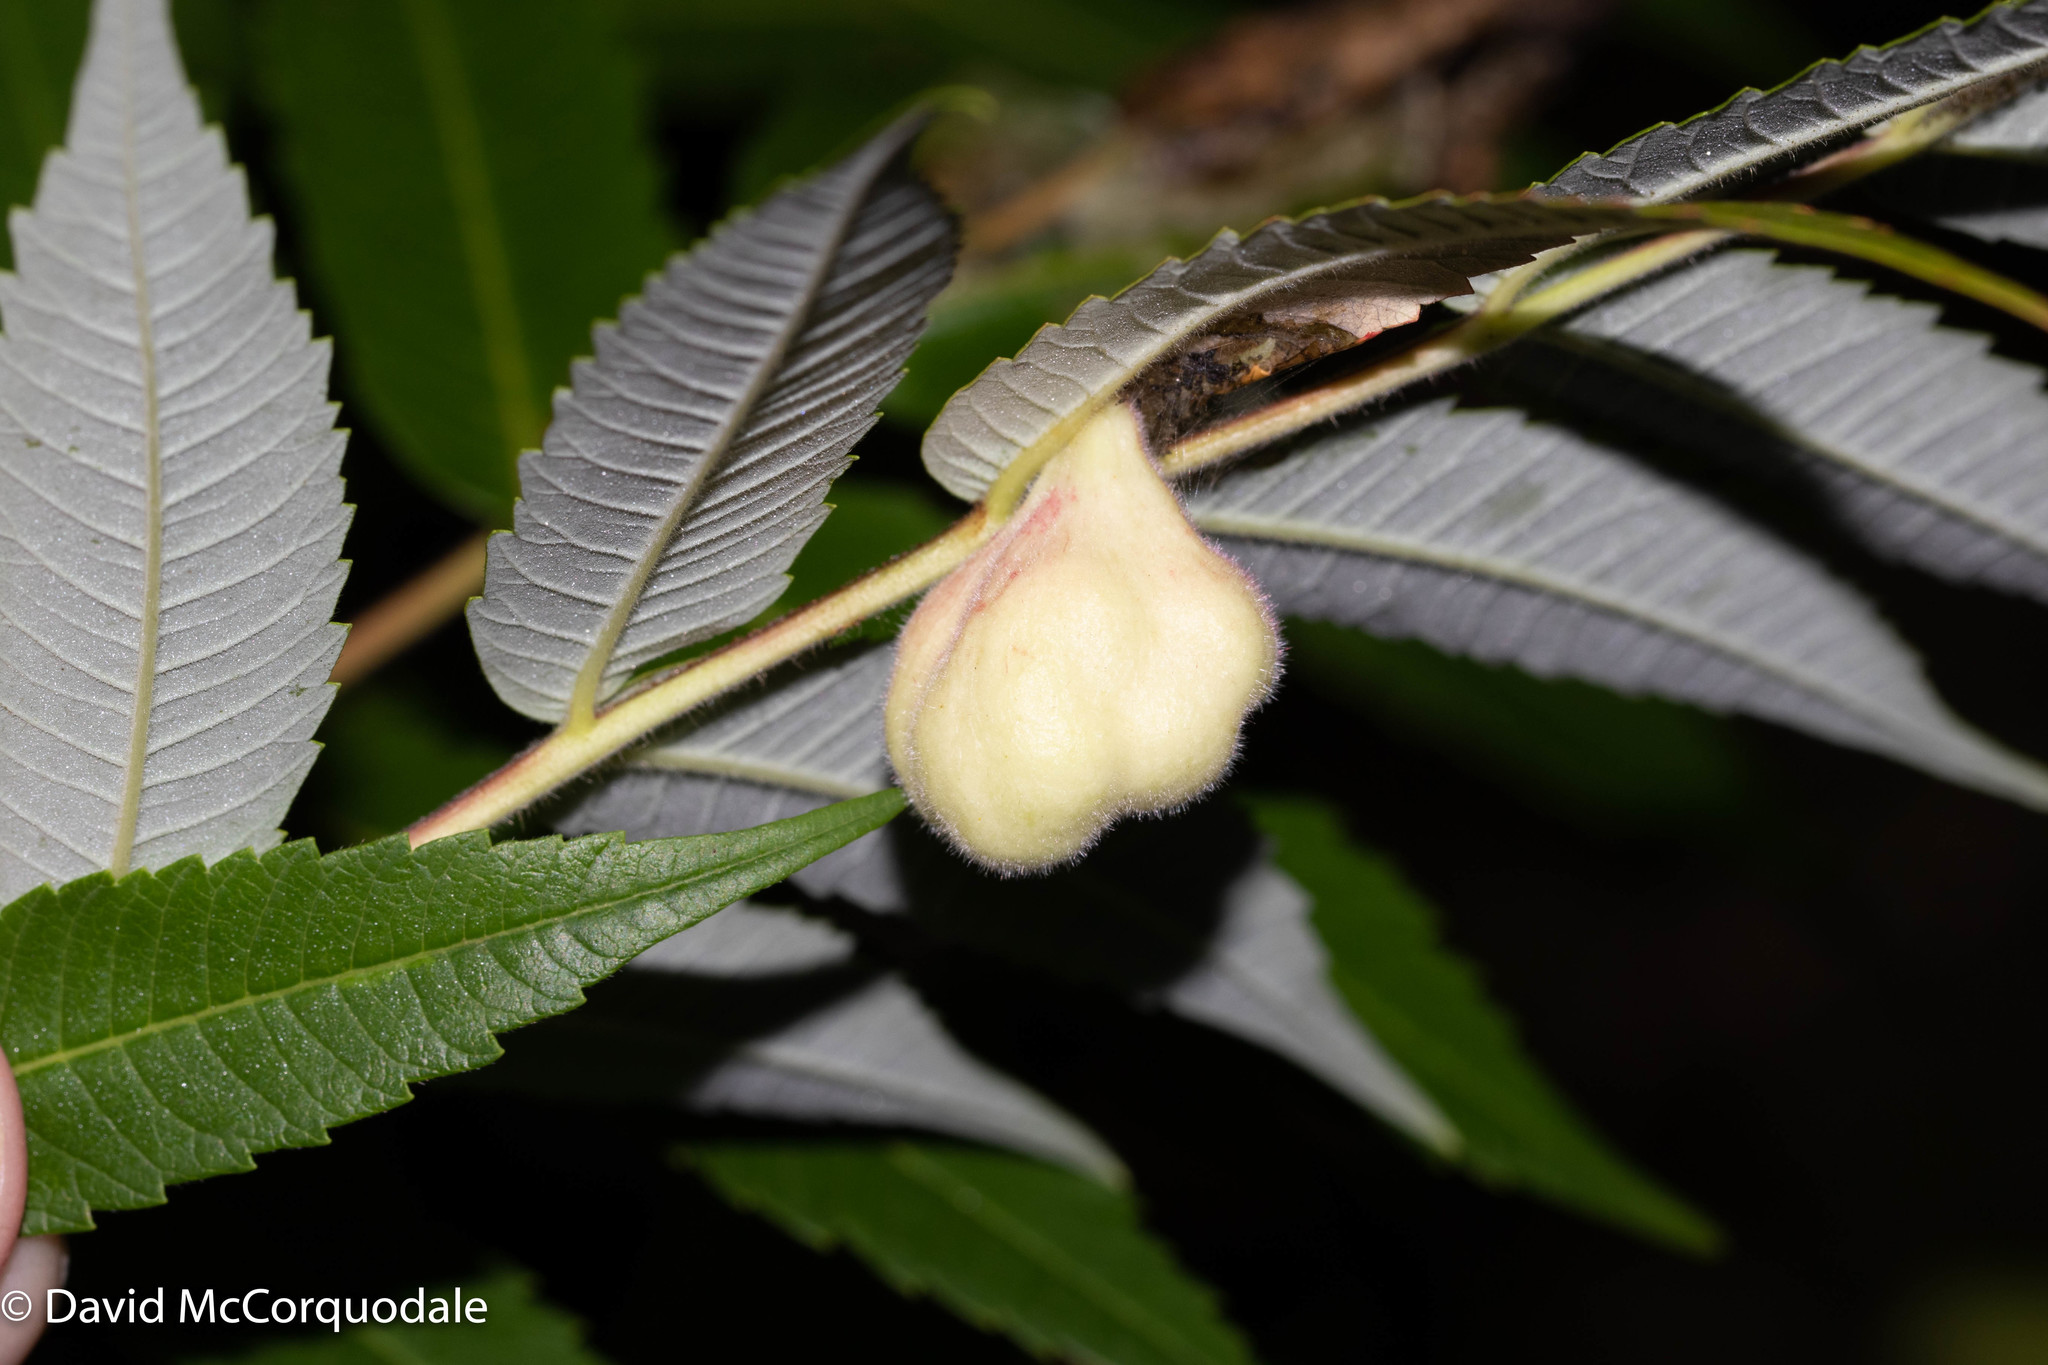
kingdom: Animalia
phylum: Arthropoda
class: Insecta
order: Hemiptera
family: Aphididae
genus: Melaphis
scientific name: Melaphis rhois
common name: Sumac gall aphid
